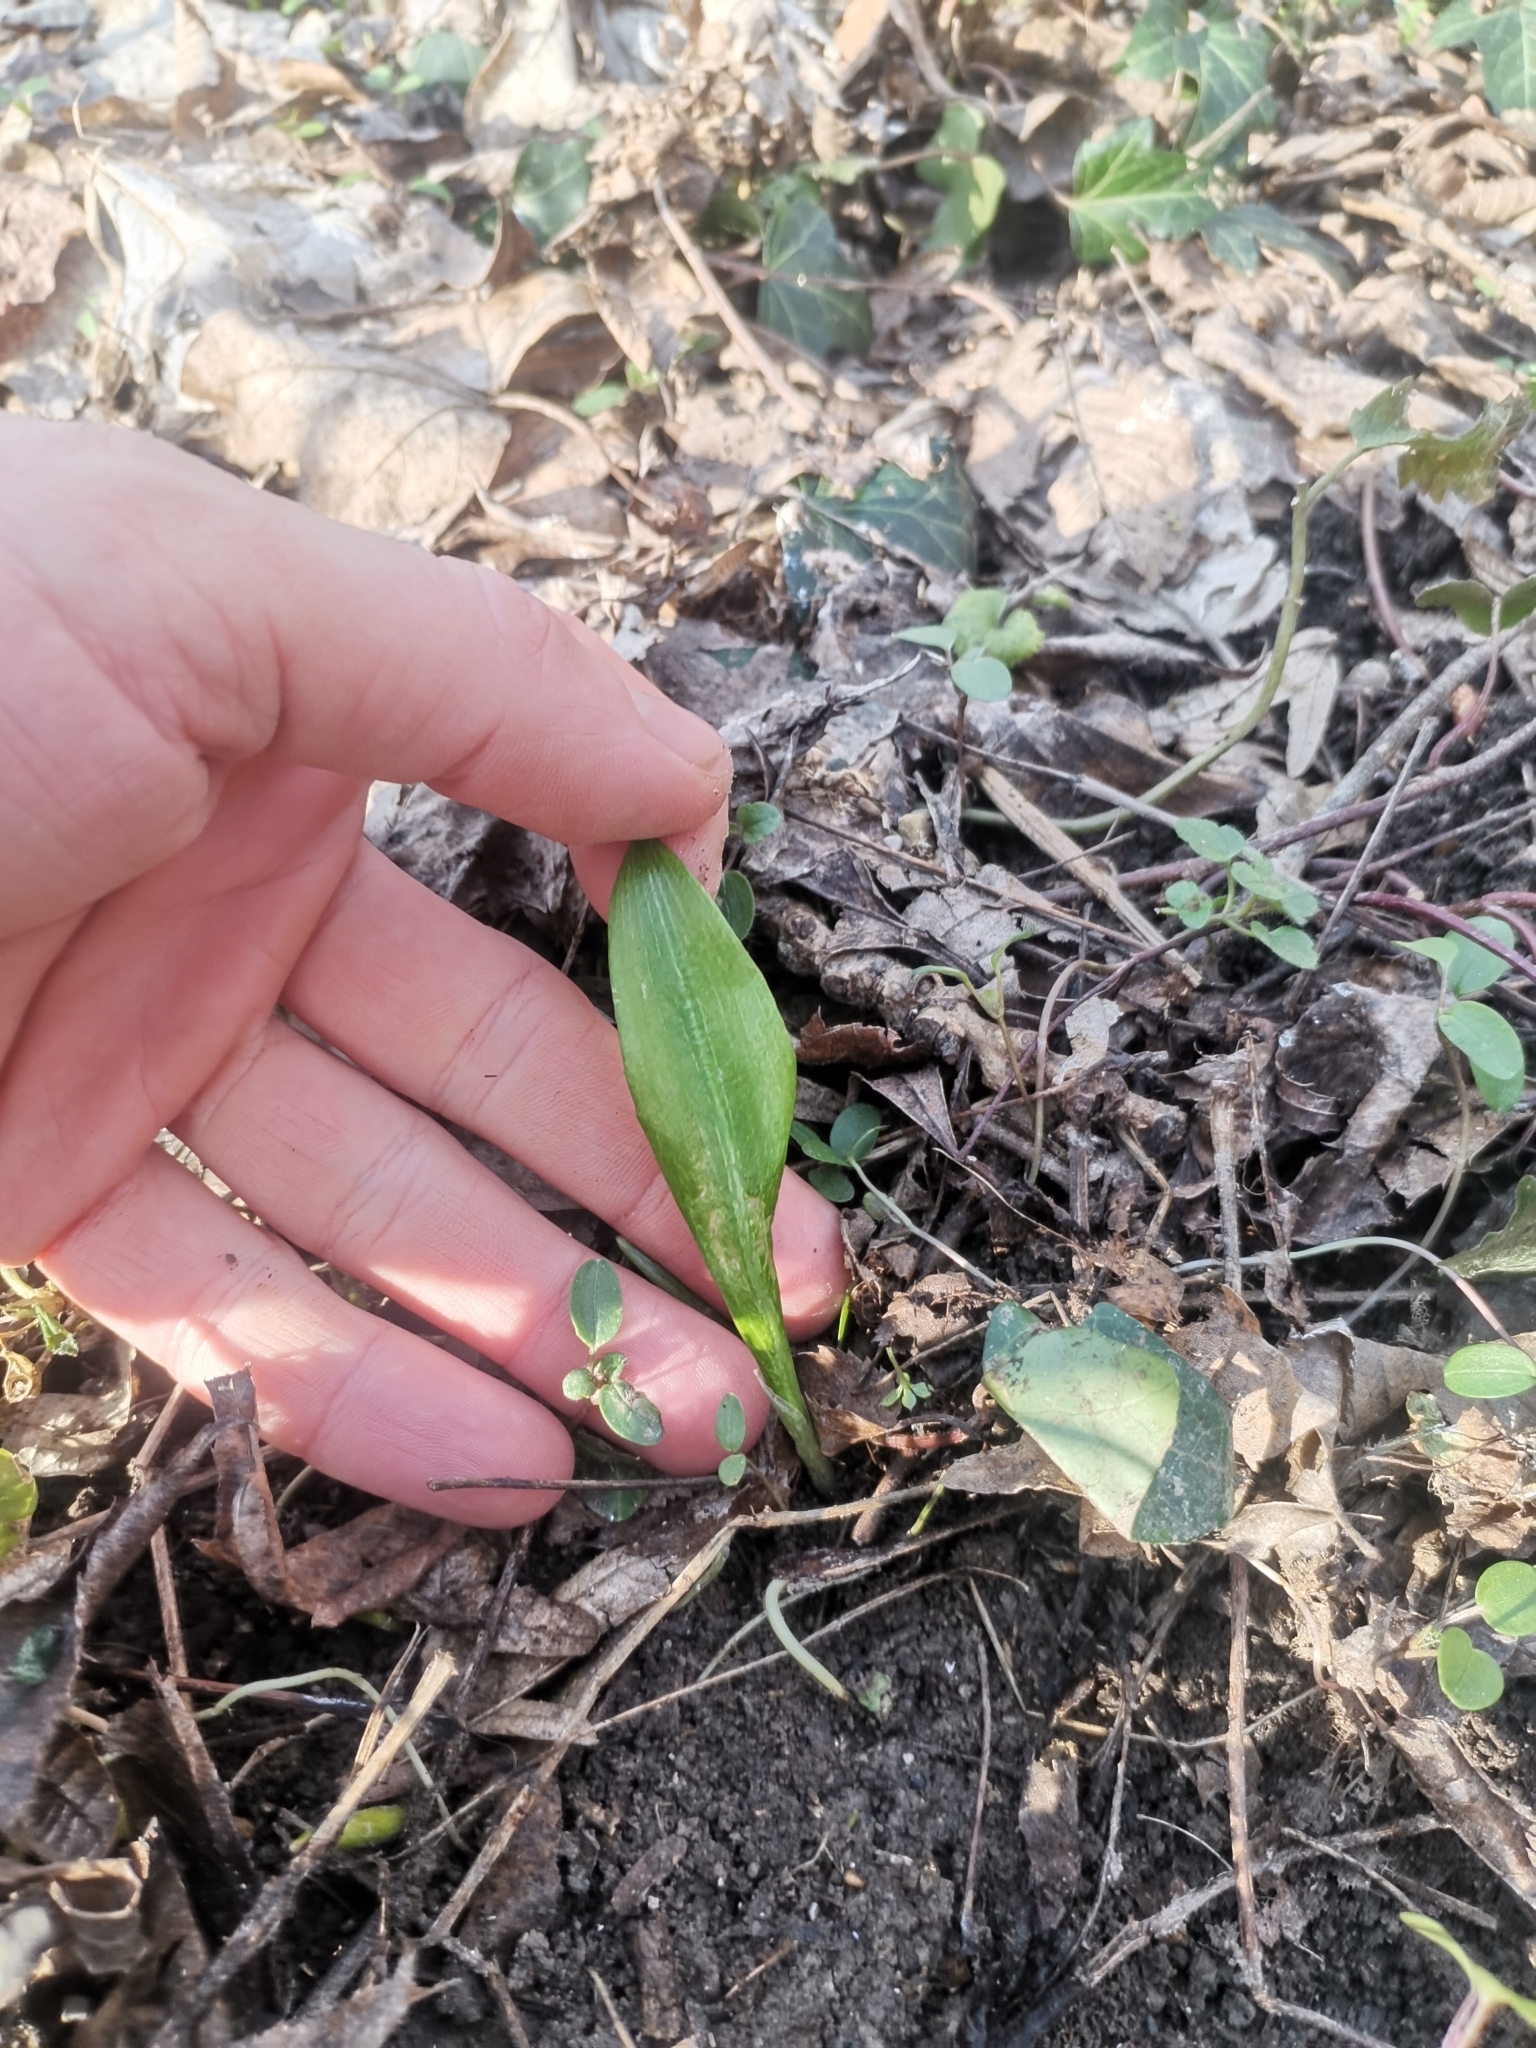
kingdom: Plantae
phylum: Tracheophyta
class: Liliopsida
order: Asparagales
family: Amaryllidaceae
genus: Allium
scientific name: Allium ursinum
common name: Ramsons
